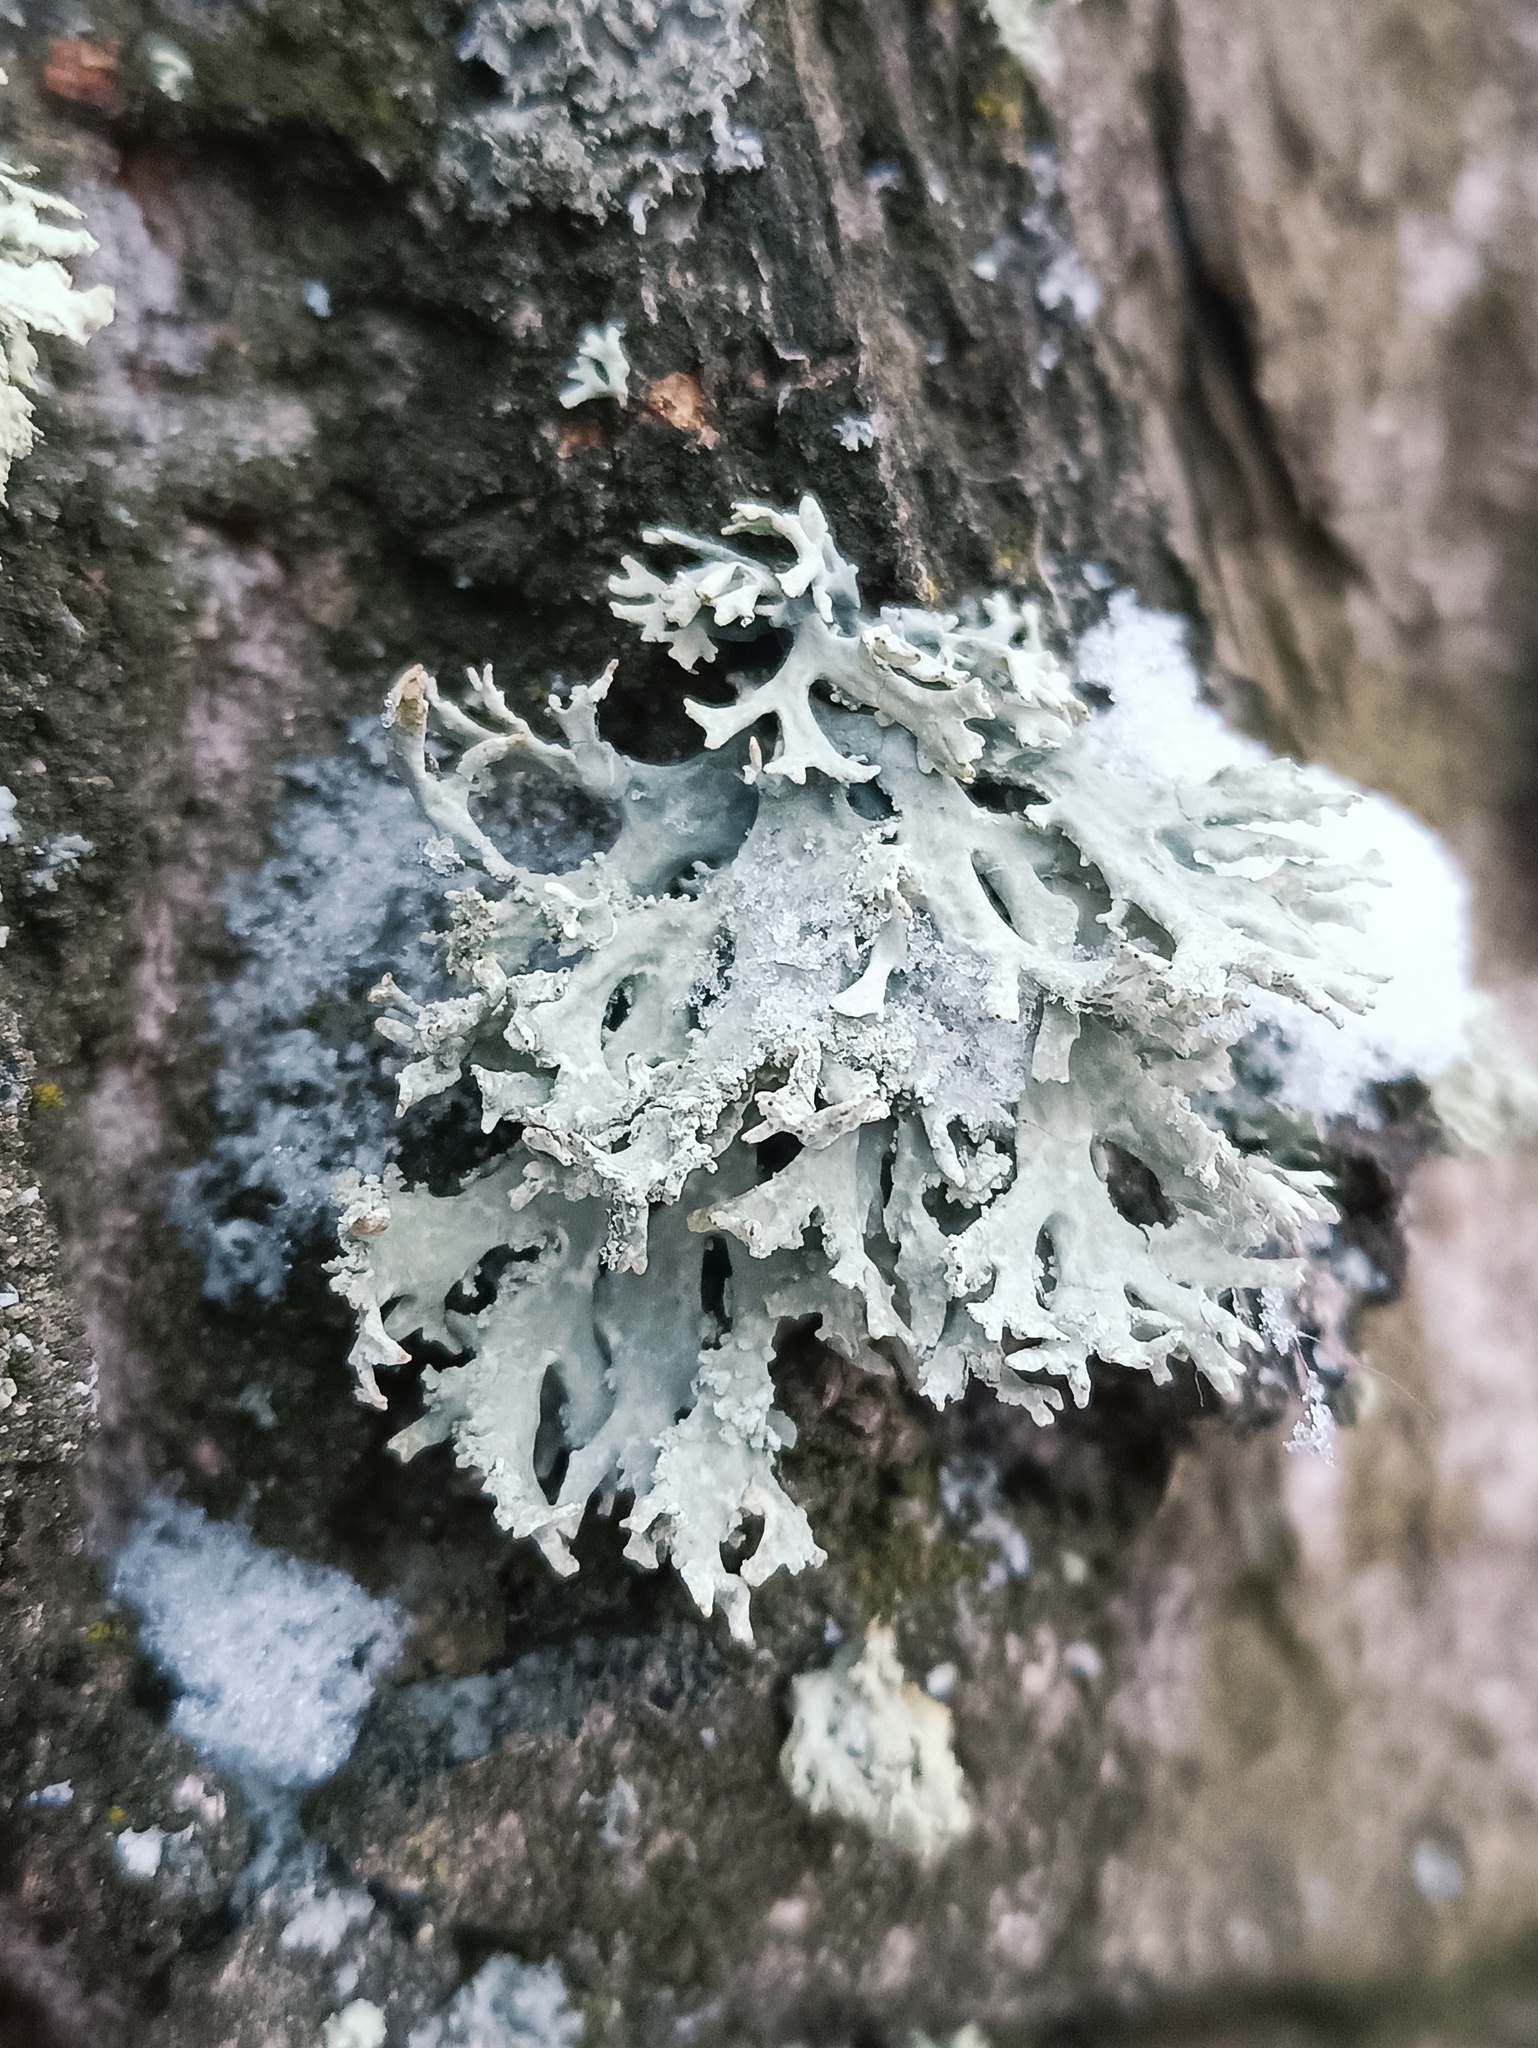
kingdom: Fungi
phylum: Ascomycota
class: Lecanoromycetes
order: Lecanorales
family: Parmeliaceae
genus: Evernia
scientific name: Evernia prunastri
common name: Oak moss
